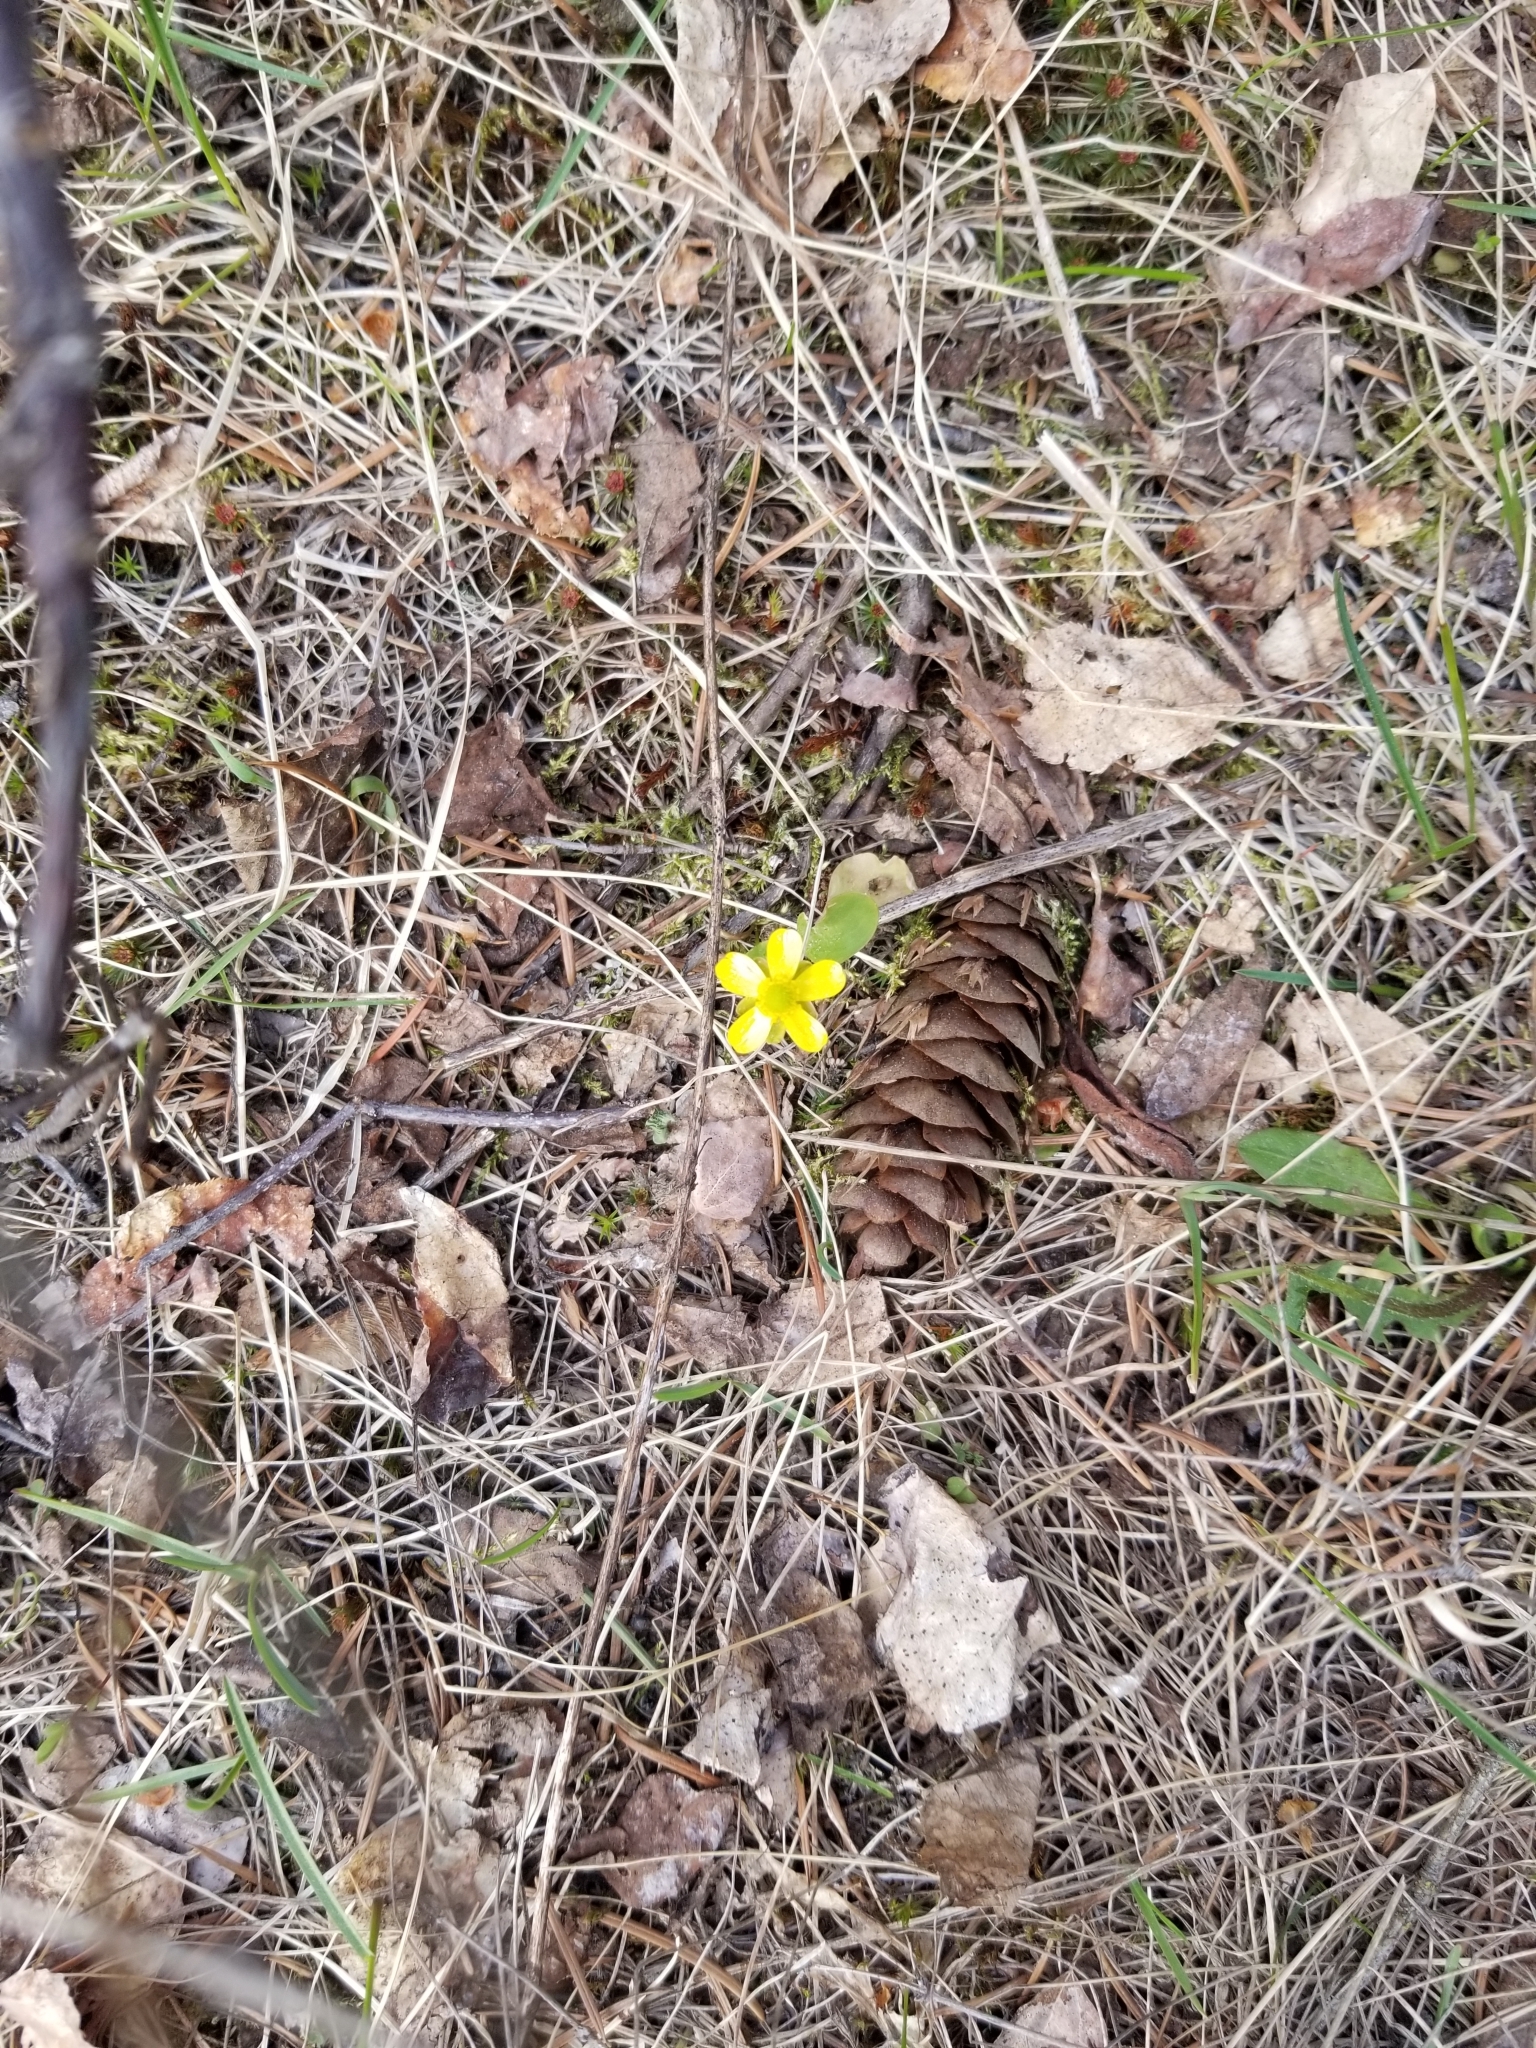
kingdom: Plantae
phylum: Tracheophyta
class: Magnoliopsida
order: Ranunculales
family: Ranunculaceae
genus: Ranunculus
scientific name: Ranunculus glaberrimus
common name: Sagebrush buttercup
